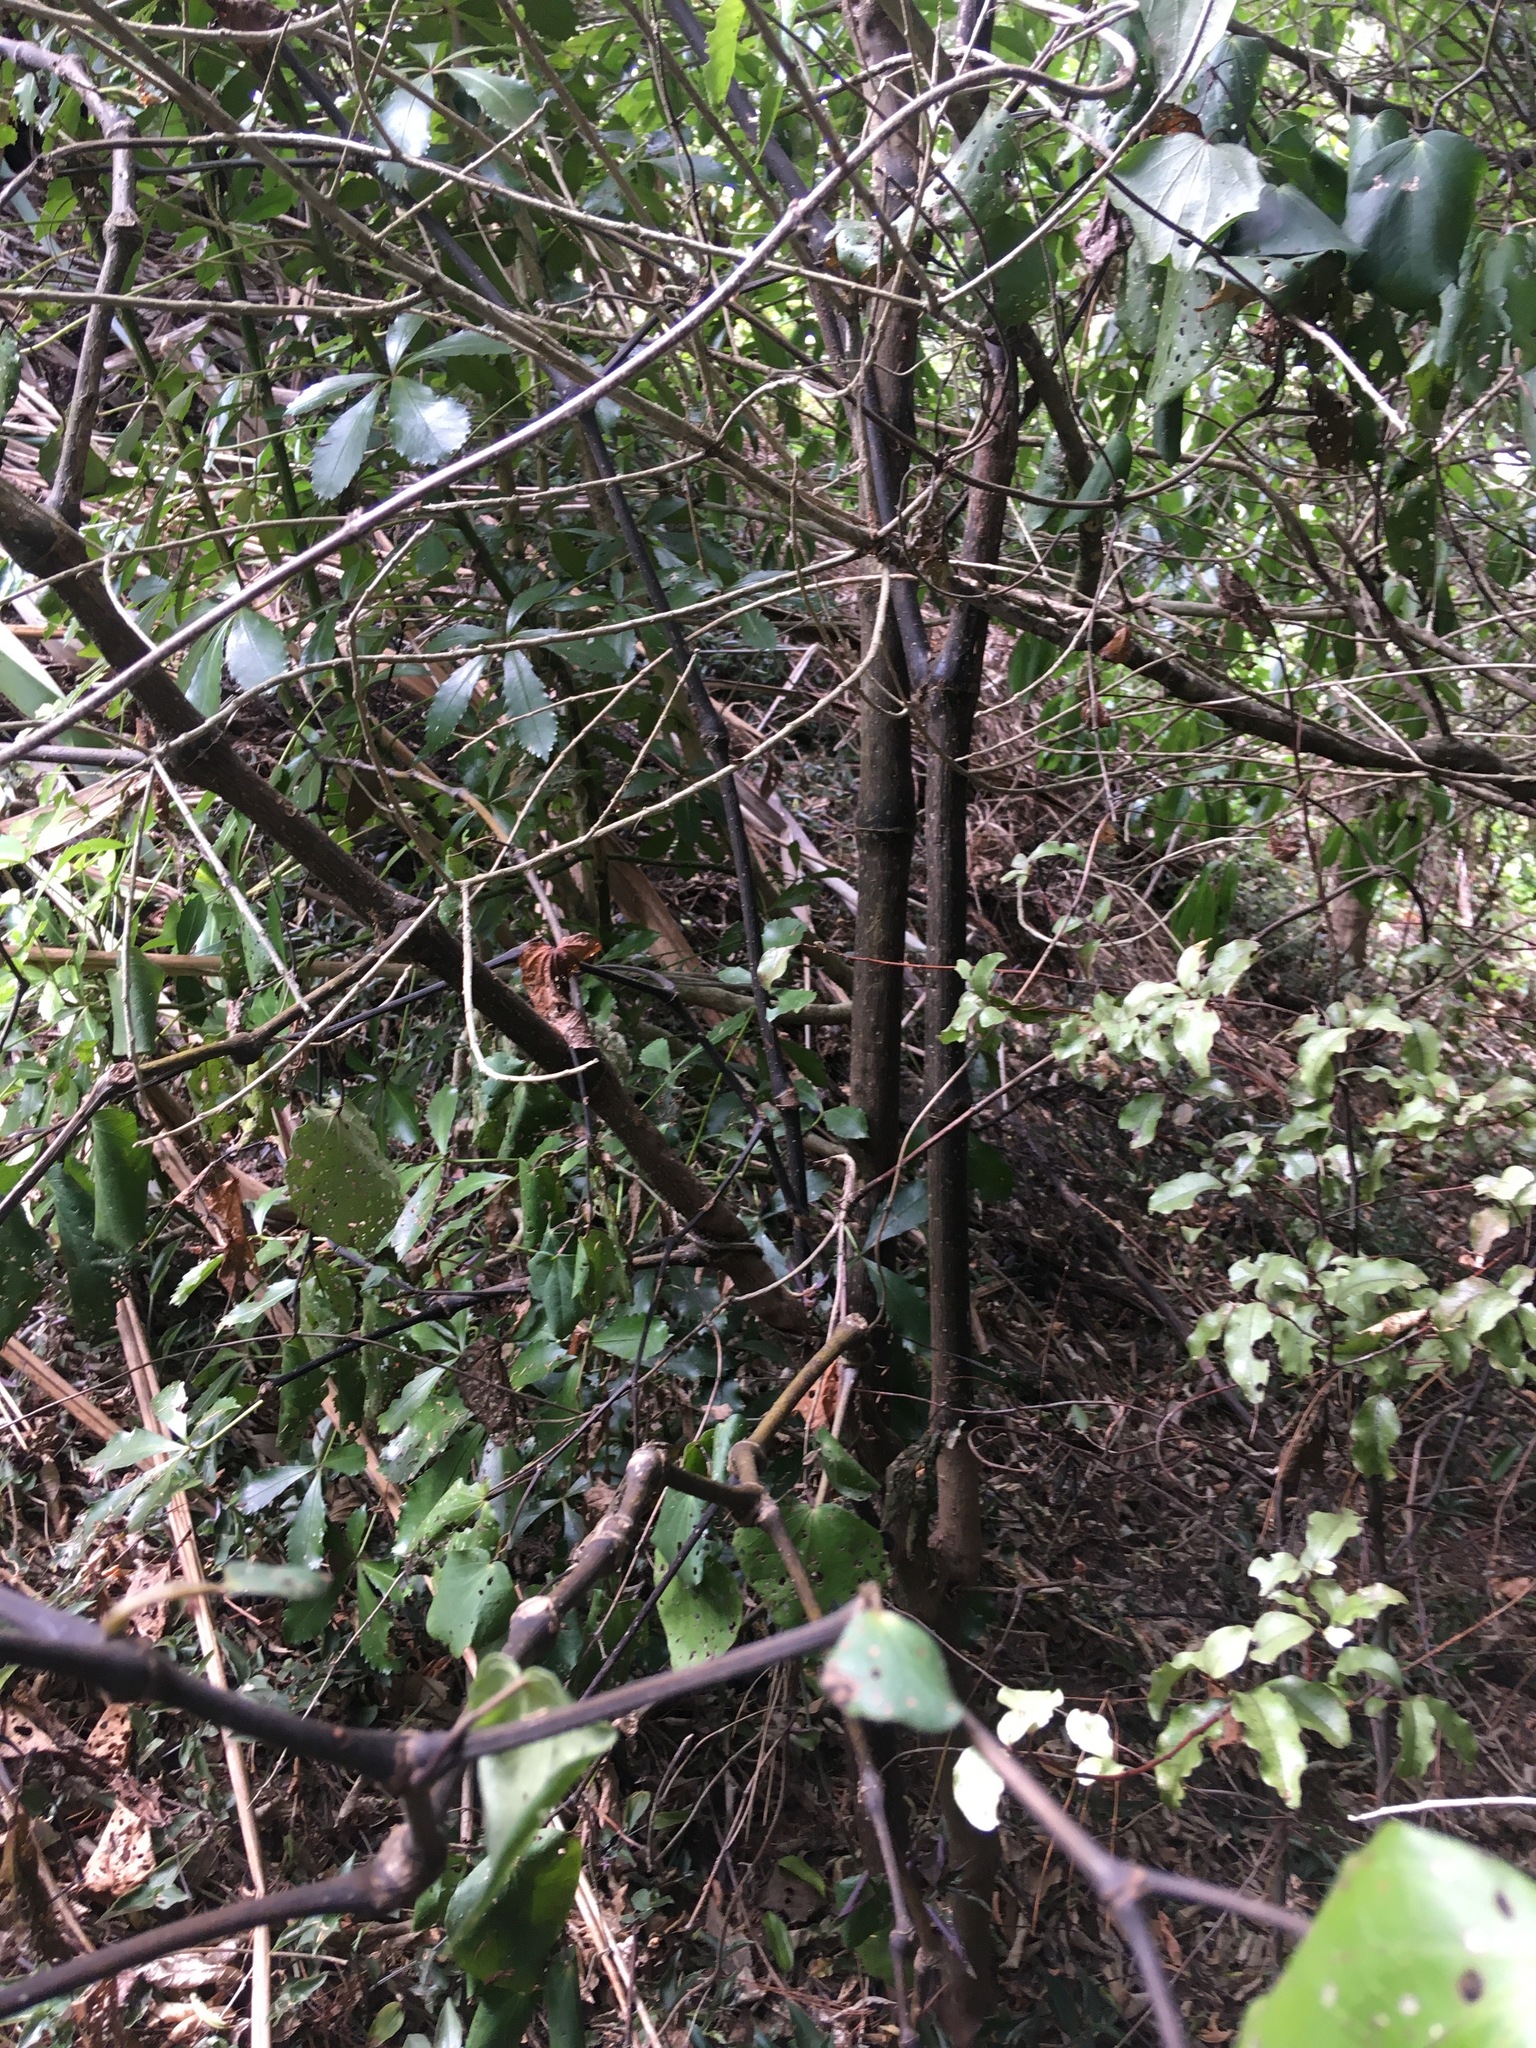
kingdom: Plantae
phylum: Tracheophyta
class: Magnoliopsida
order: Piperales
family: Piperaceae
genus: Macropiper
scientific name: Macropiper excelsum
